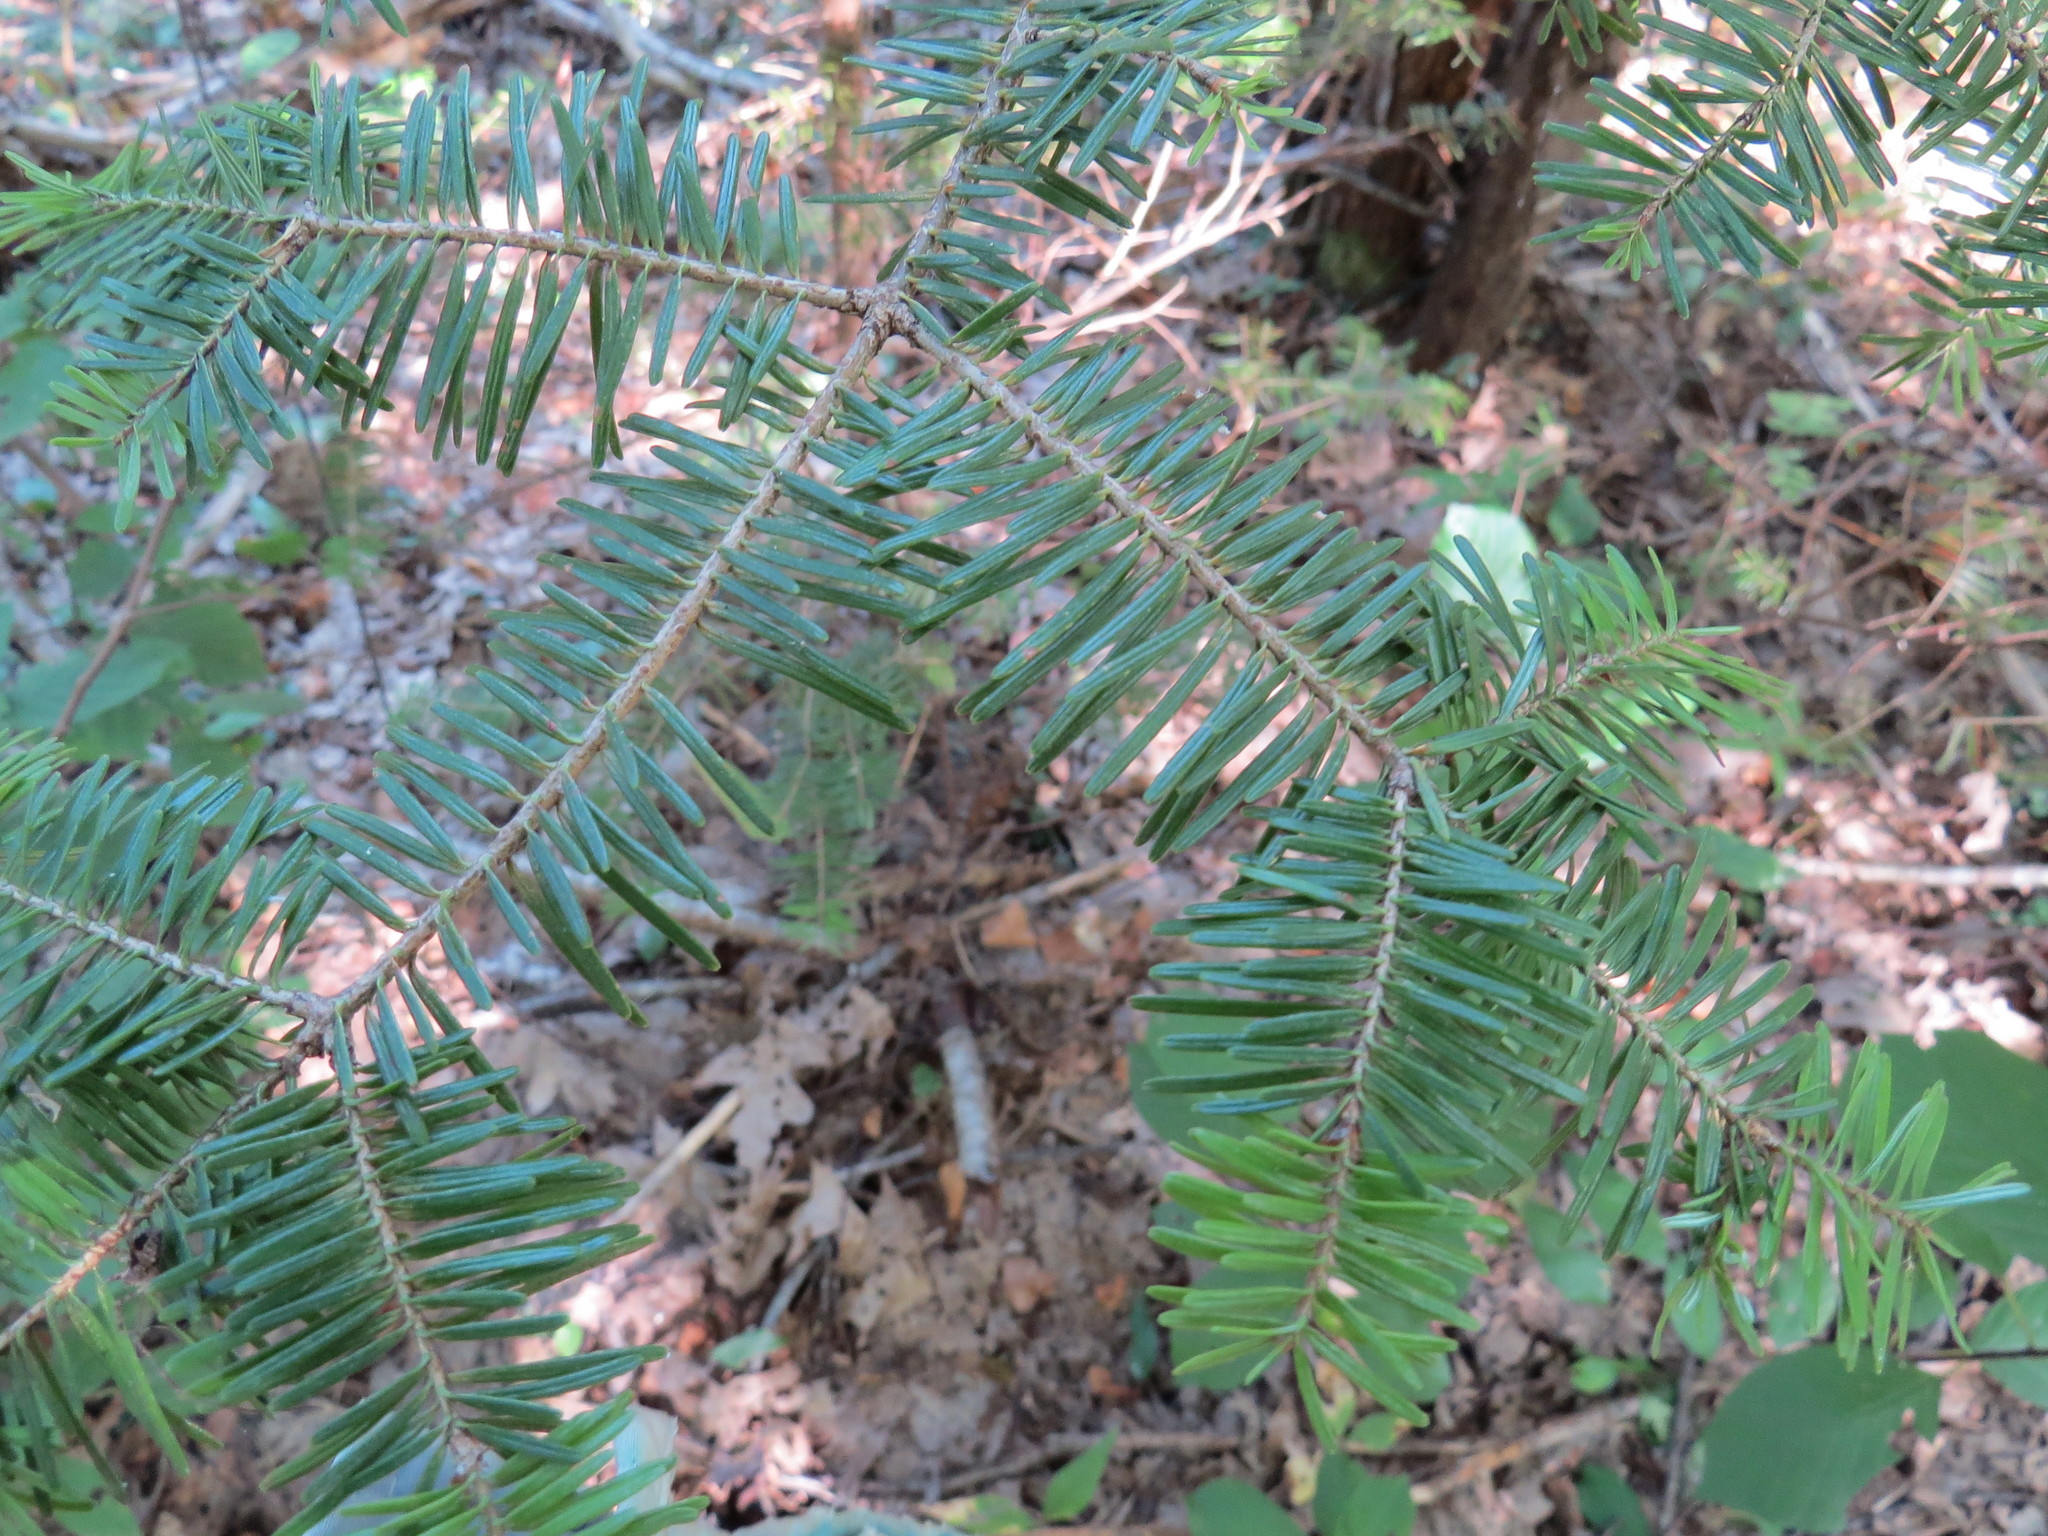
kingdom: Plantae
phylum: Tracheophyta
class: Pinopsida
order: Pinales
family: Pinaceae
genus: Abies
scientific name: Abies balsamea
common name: Balsam fir
